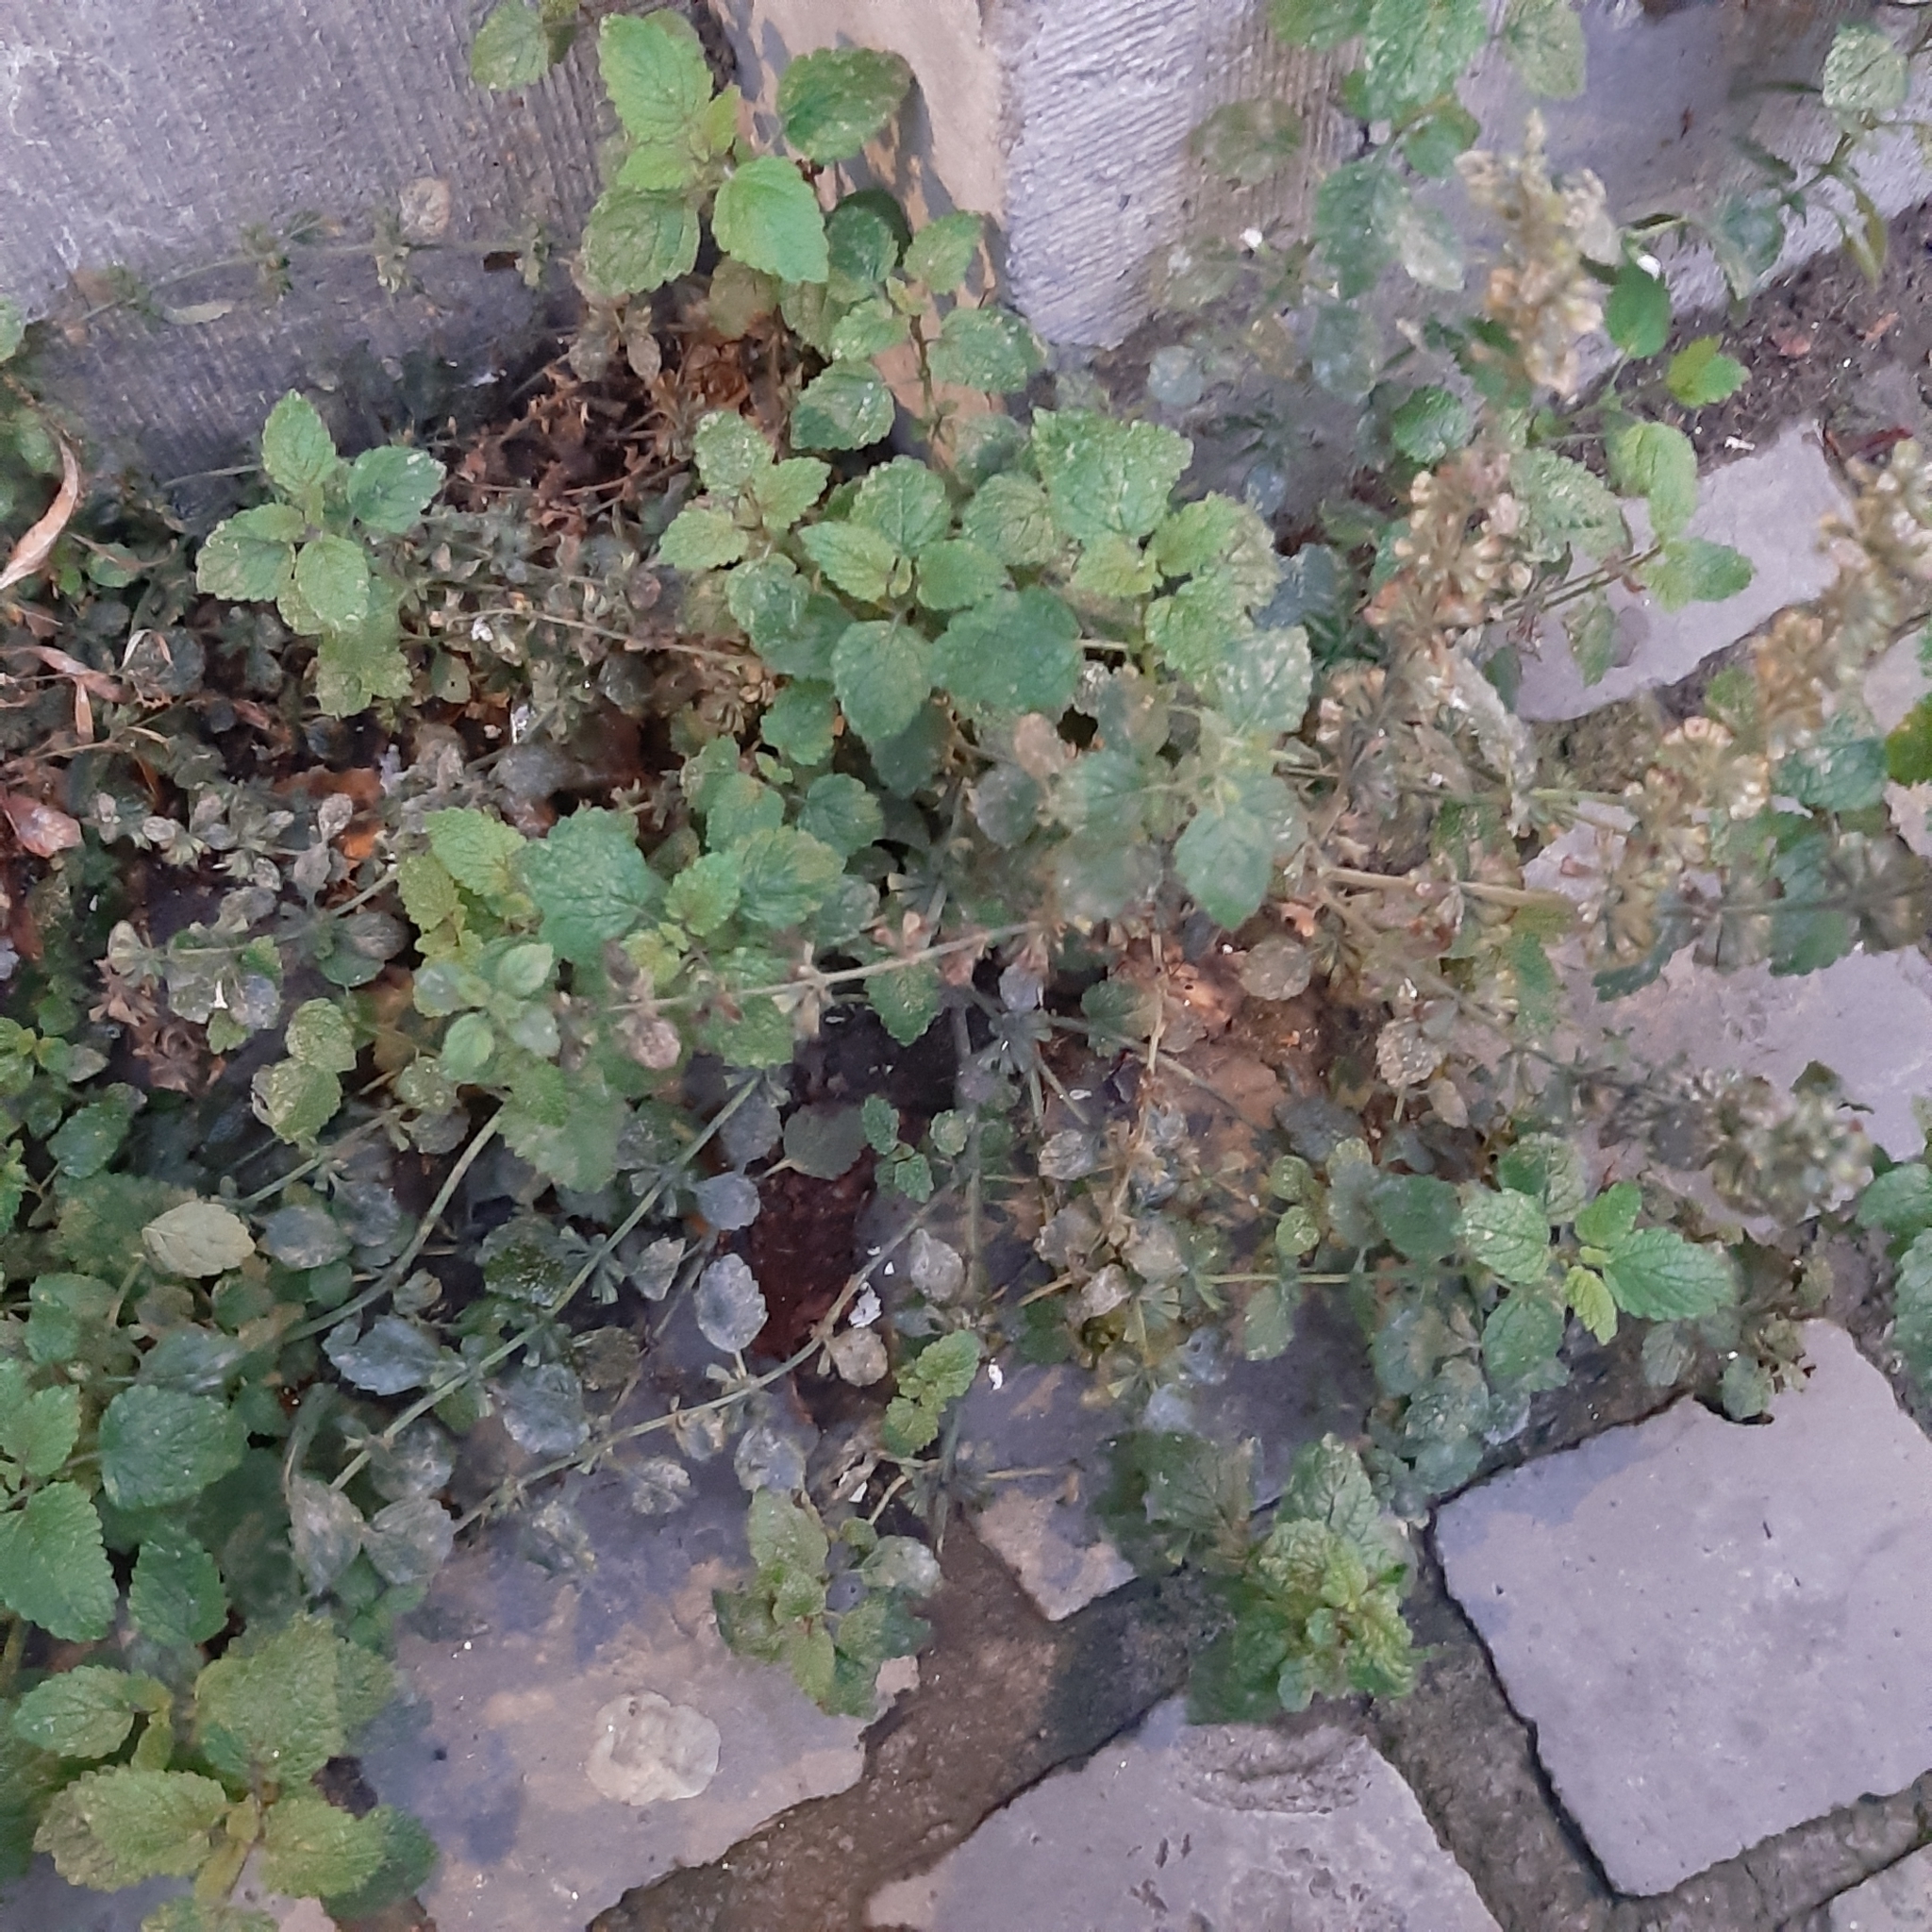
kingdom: Plantae
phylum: Tracheophyta
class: Magnoliopsida
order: Lamiales
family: Lamiaceae
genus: Melissa
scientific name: Melissa officinalis
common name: Balm
